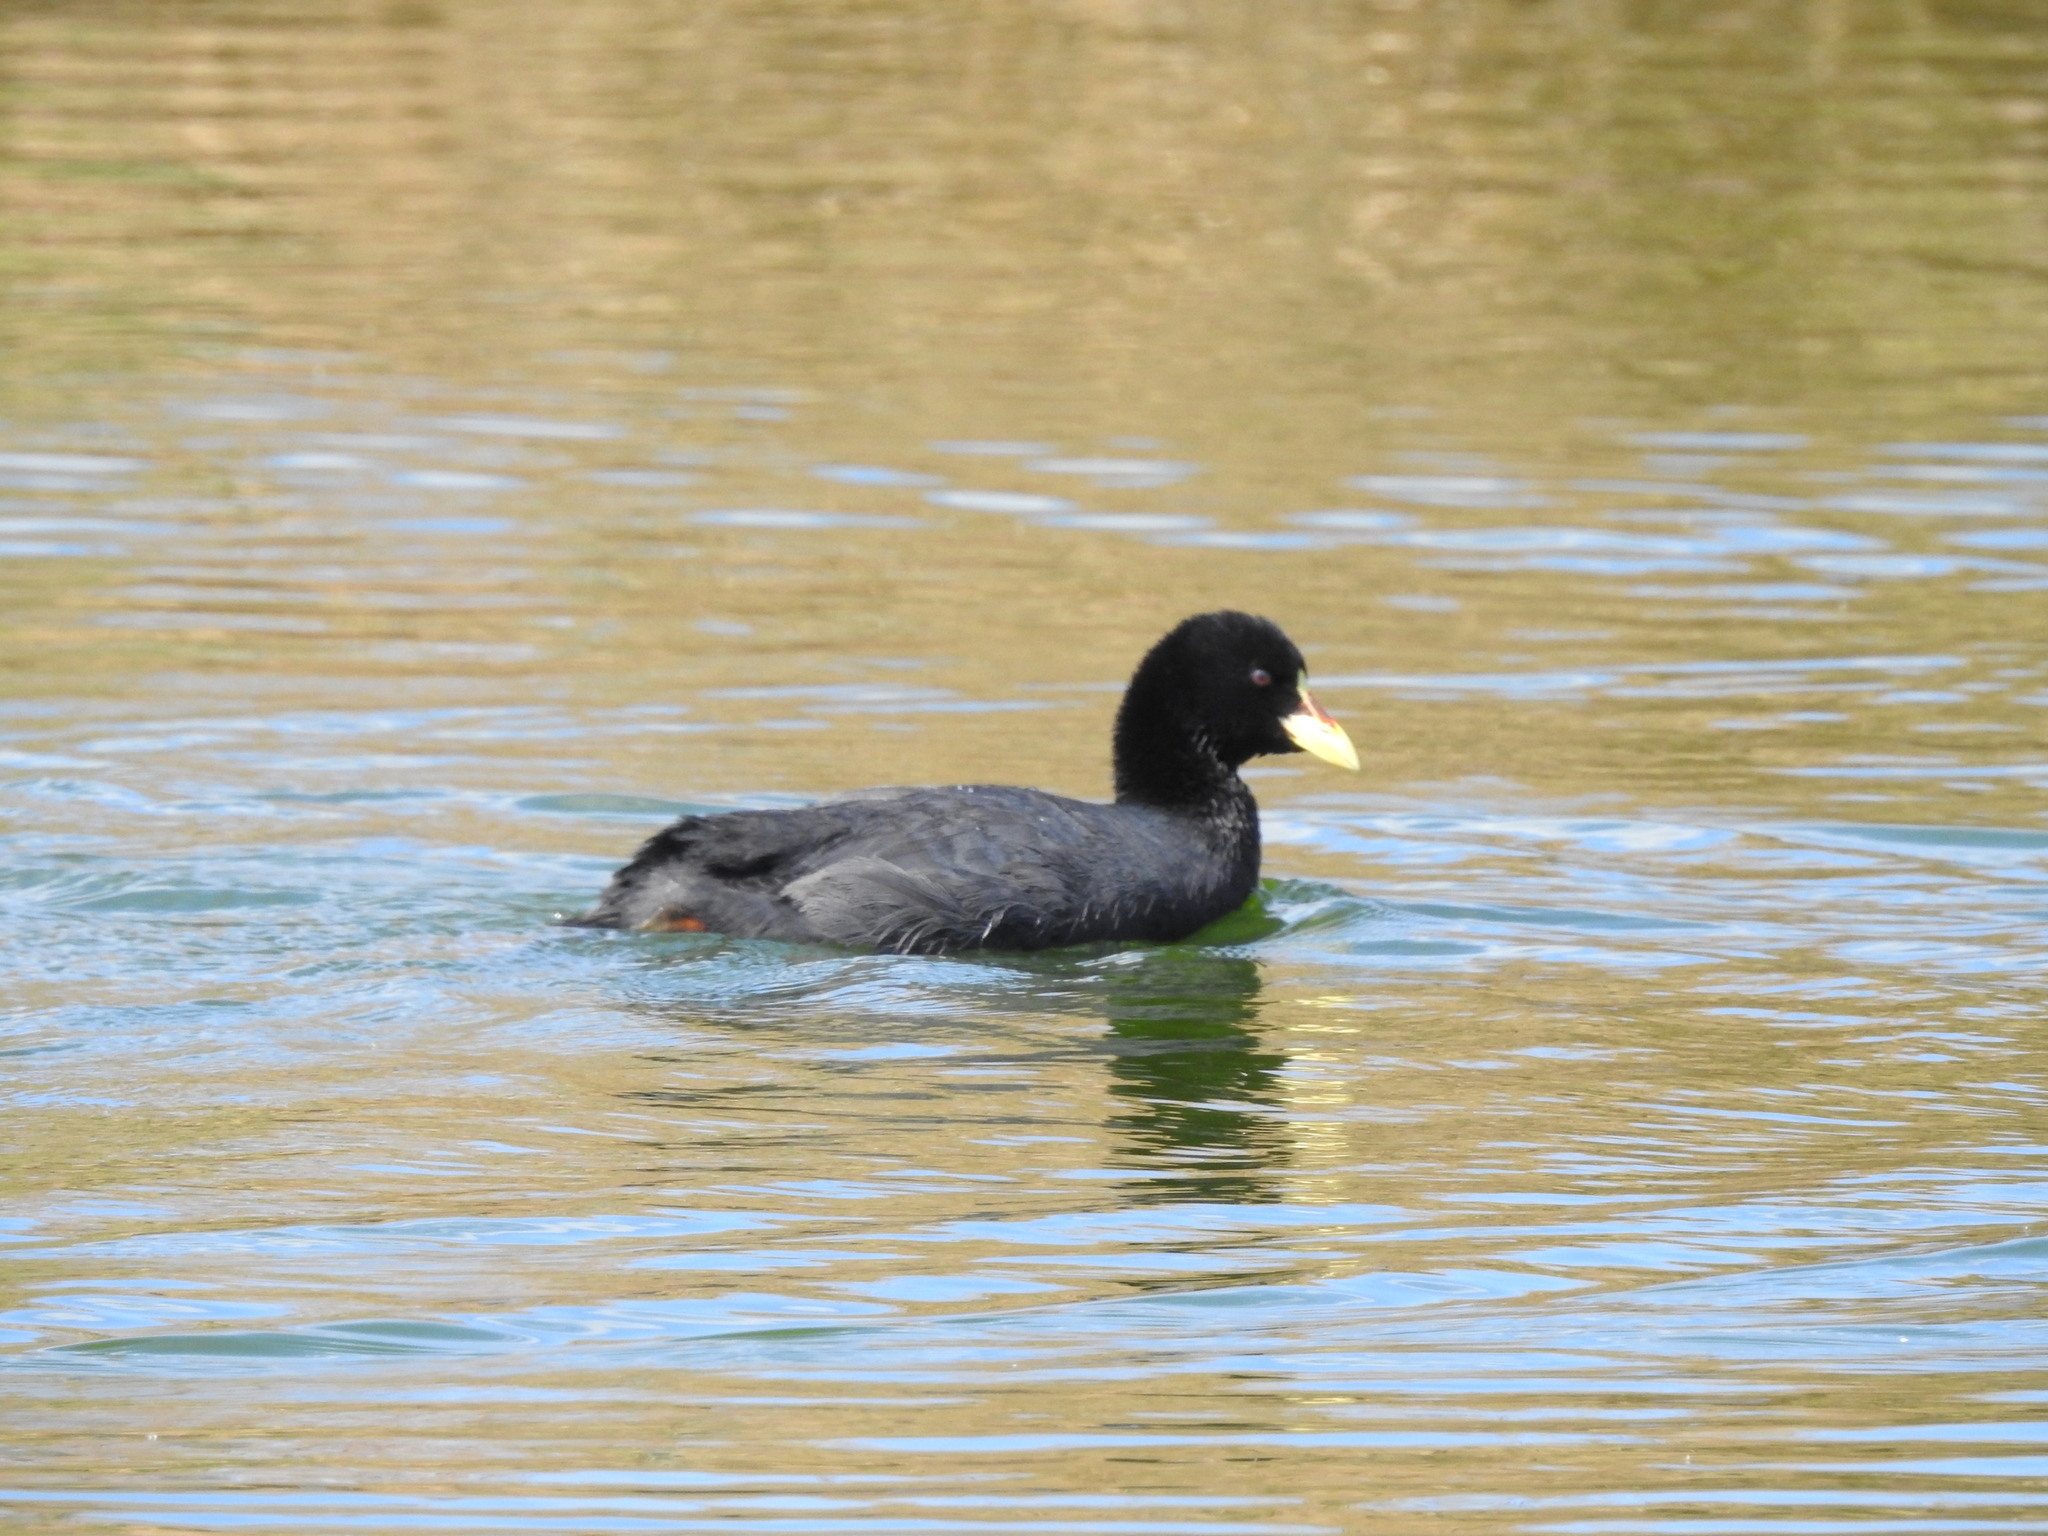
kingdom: Animalia
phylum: Chordata
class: Aves
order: Gruiformes
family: Rallidae
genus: Fulica
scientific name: Fulica armillata
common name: Red-gartered coot
